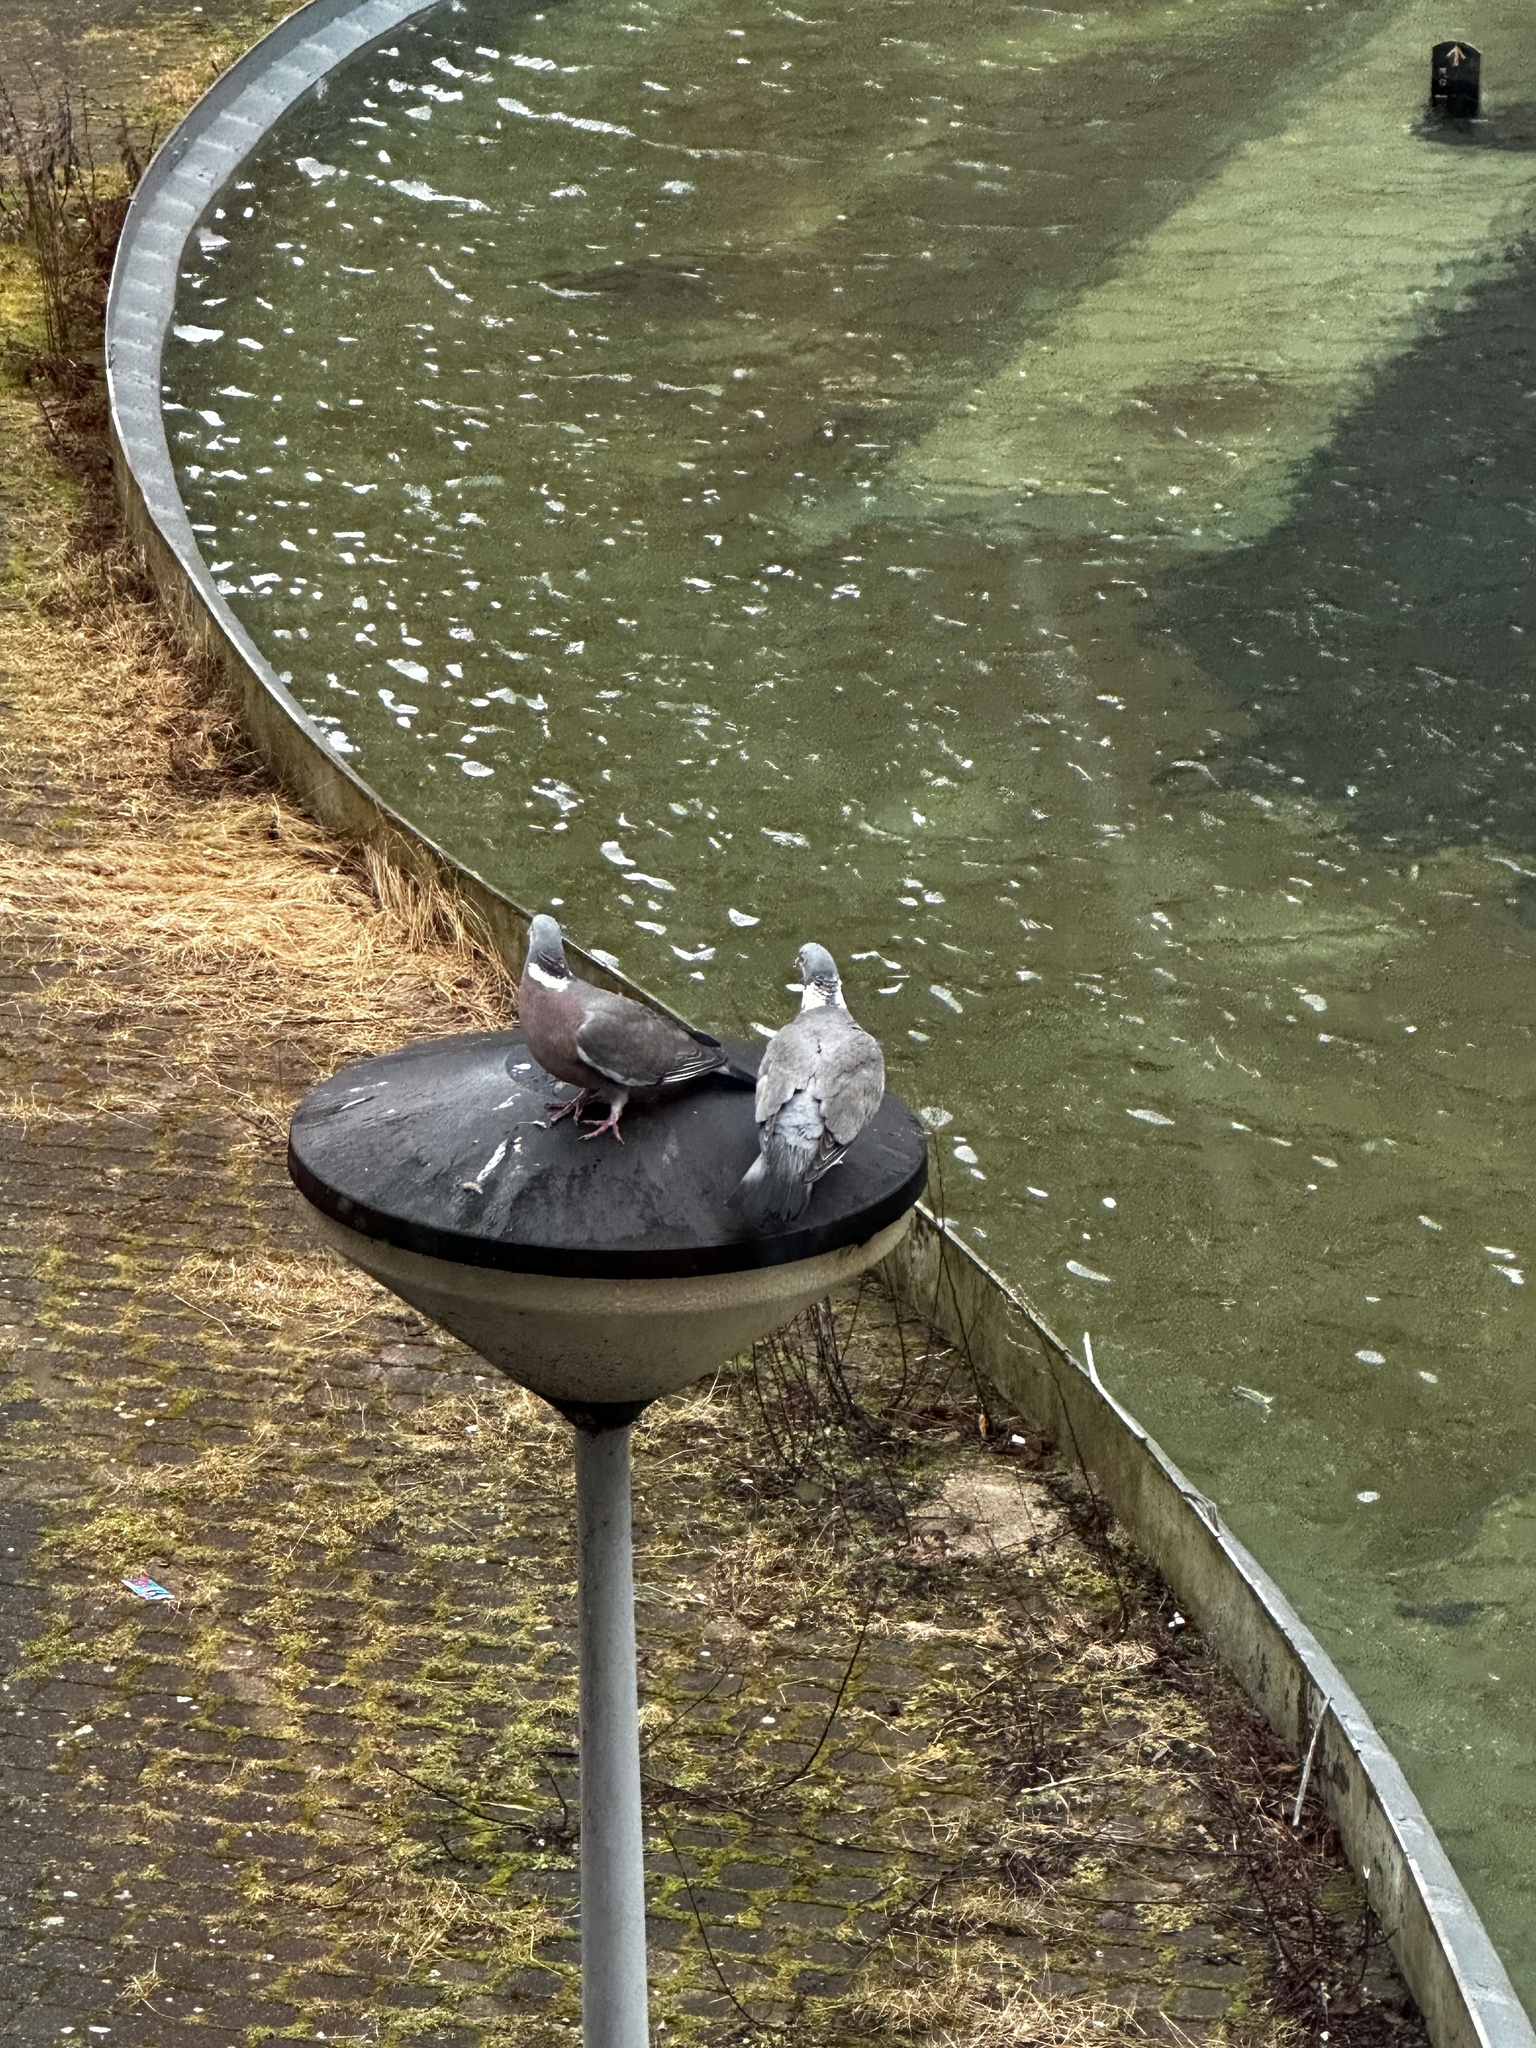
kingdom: Animalia
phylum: Chordata
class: Aves
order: Columbiformes
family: Columbidae
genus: Columba
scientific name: Columba palumbus
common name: Common wood pigeon
